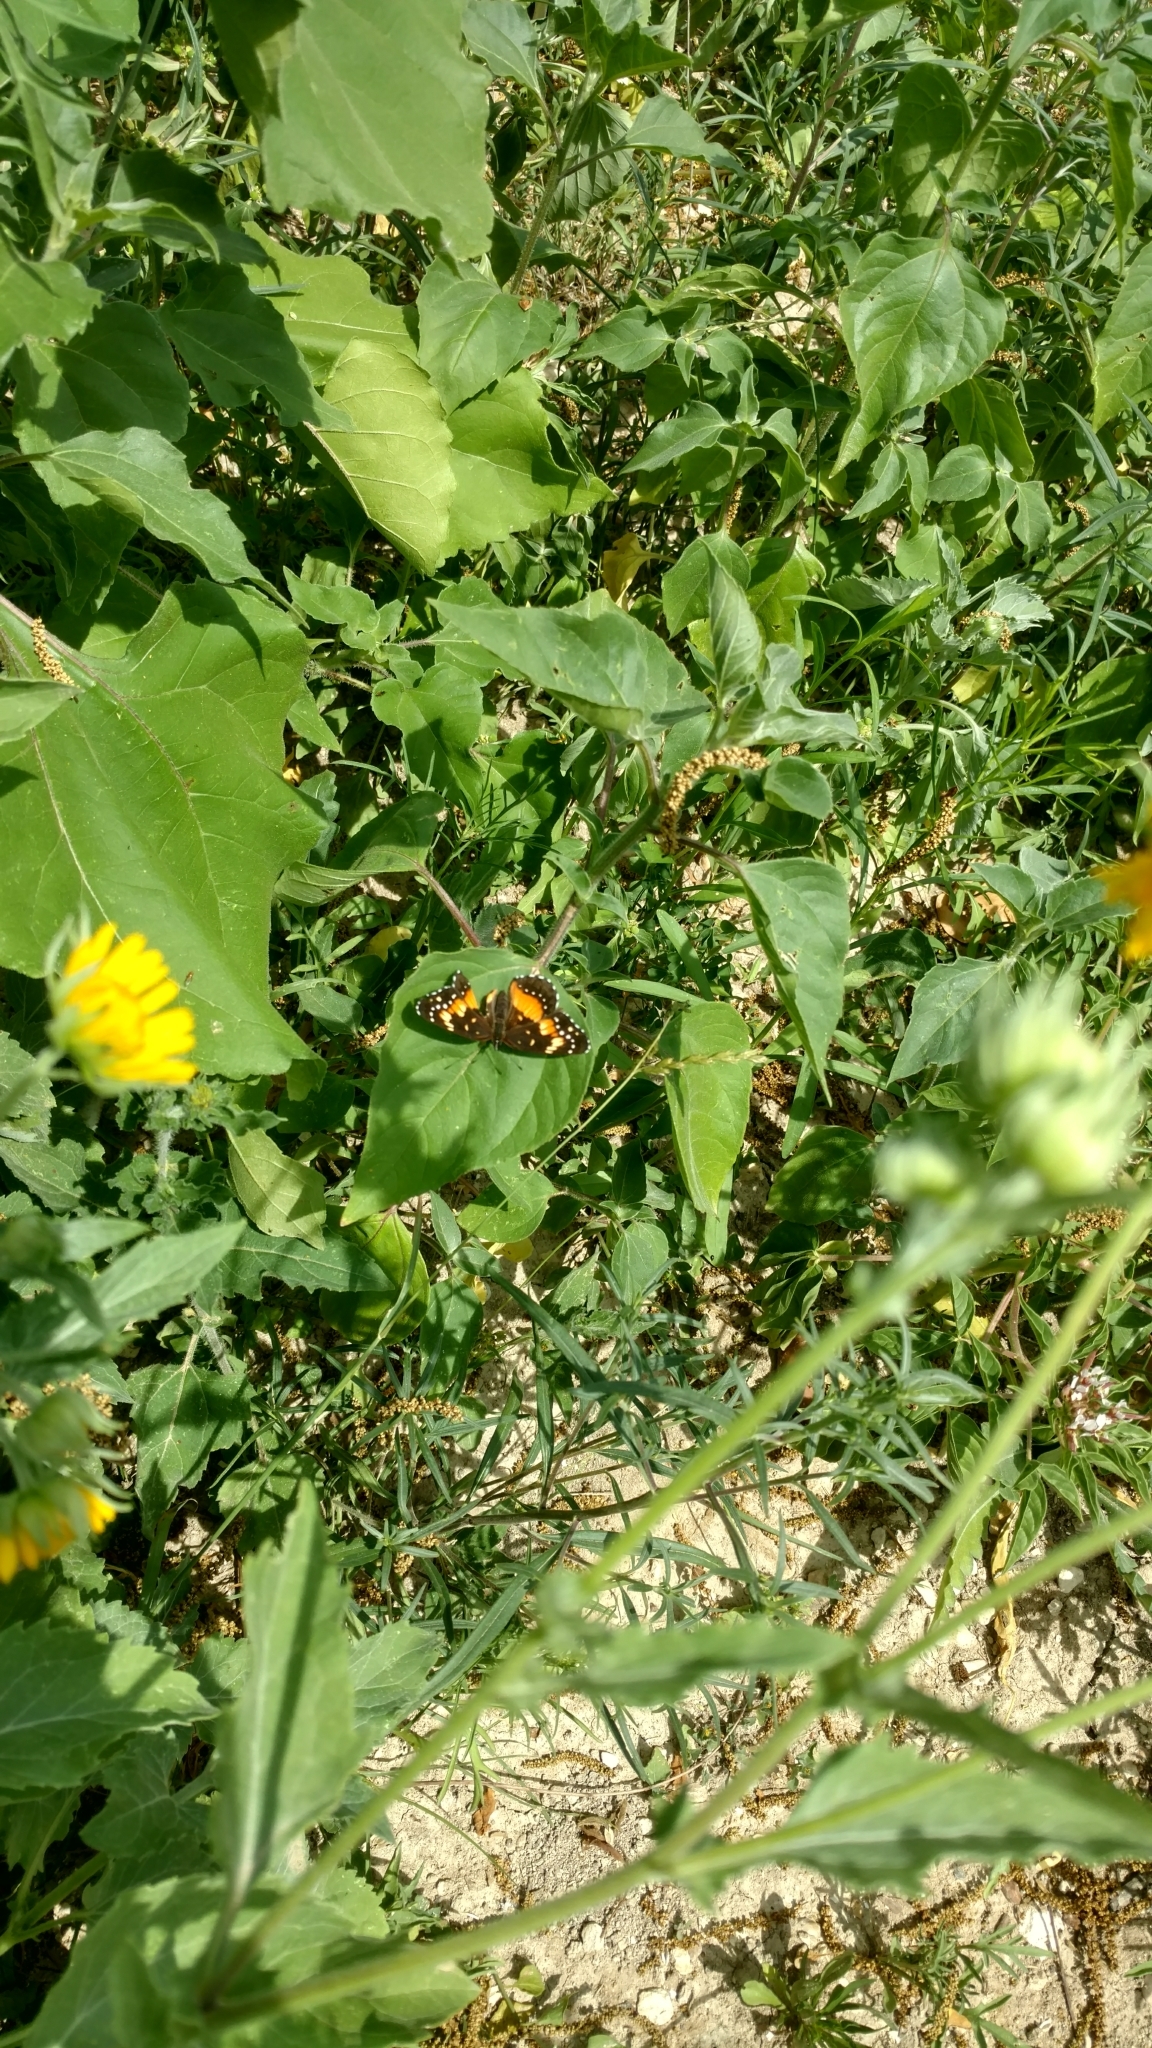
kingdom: Animalia
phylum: Arthropoda
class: Insecta
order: Lepidoptera
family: Nymphalidae
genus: Chlosyne
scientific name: Chlosyne lacinia
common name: Bordered patch
